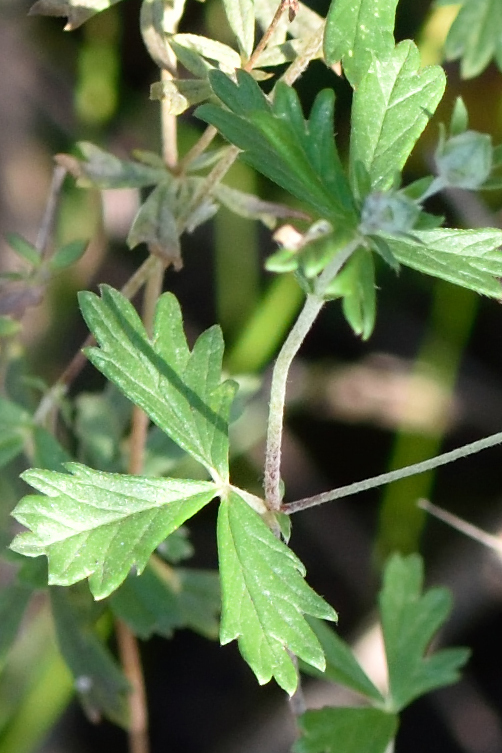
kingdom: Plantae
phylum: Tracheophyta
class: Magnoliopsida
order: Rosales
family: Rosaceae
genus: Potentilla
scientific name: Potentilla argentea
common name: Hoary cinquefoil
